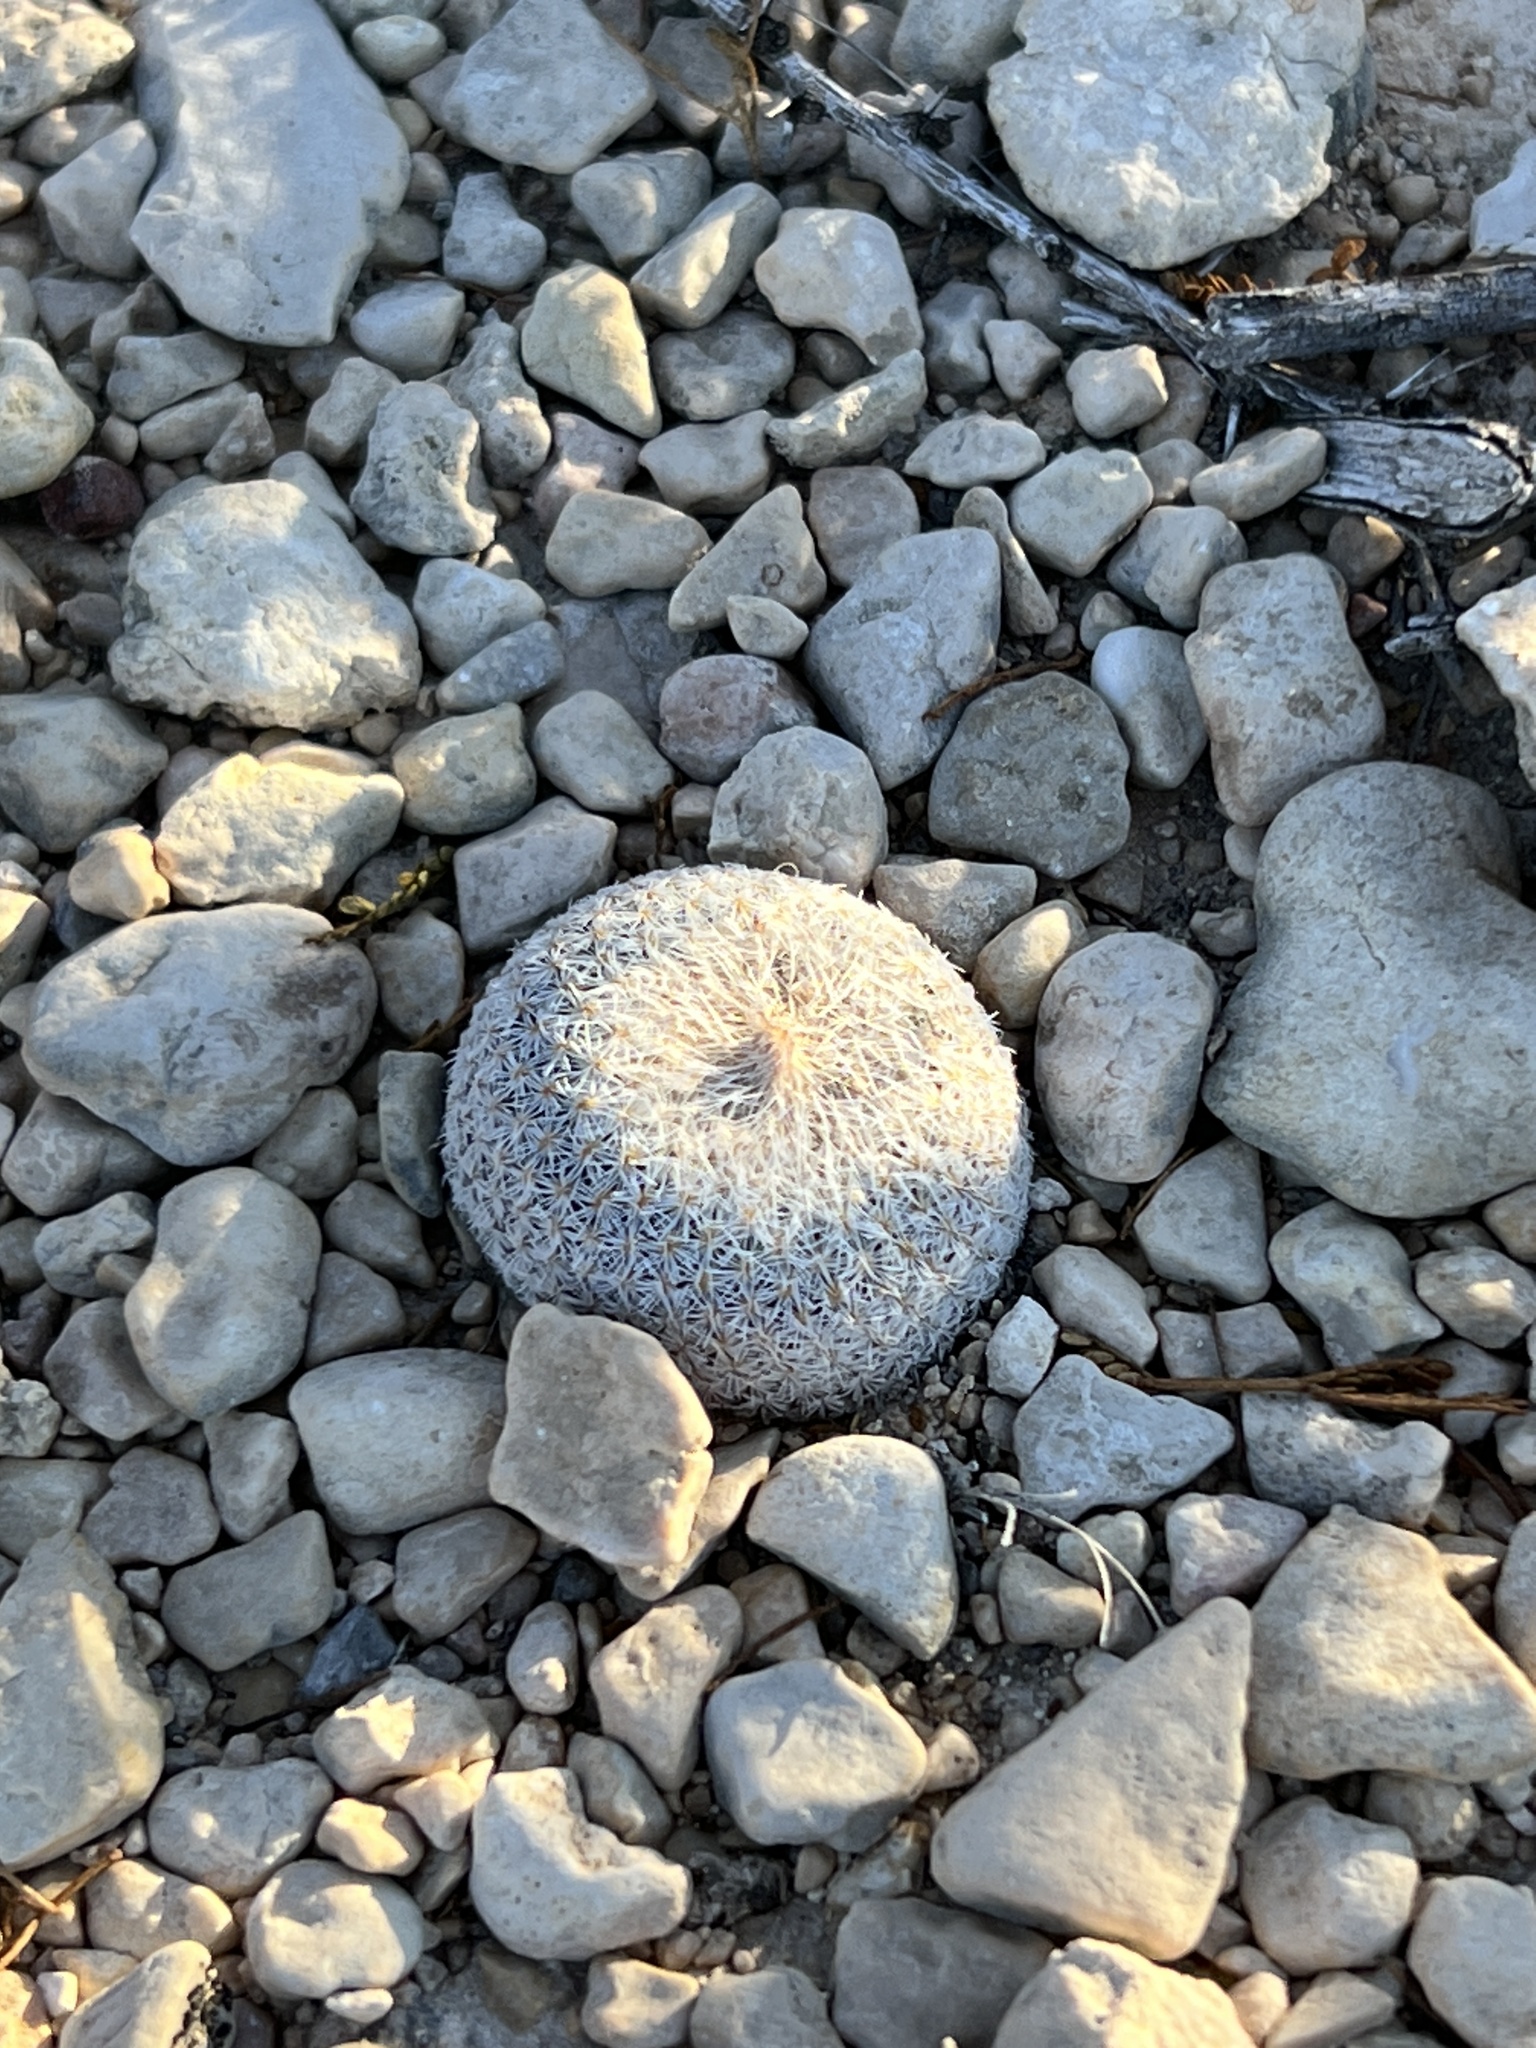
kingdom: Plantae
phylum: Tracheophyta
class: Magnoliopsida
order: Caryophyllales
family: Cactaceae
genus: Epithelantha
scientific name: Epithelantha micromeris
